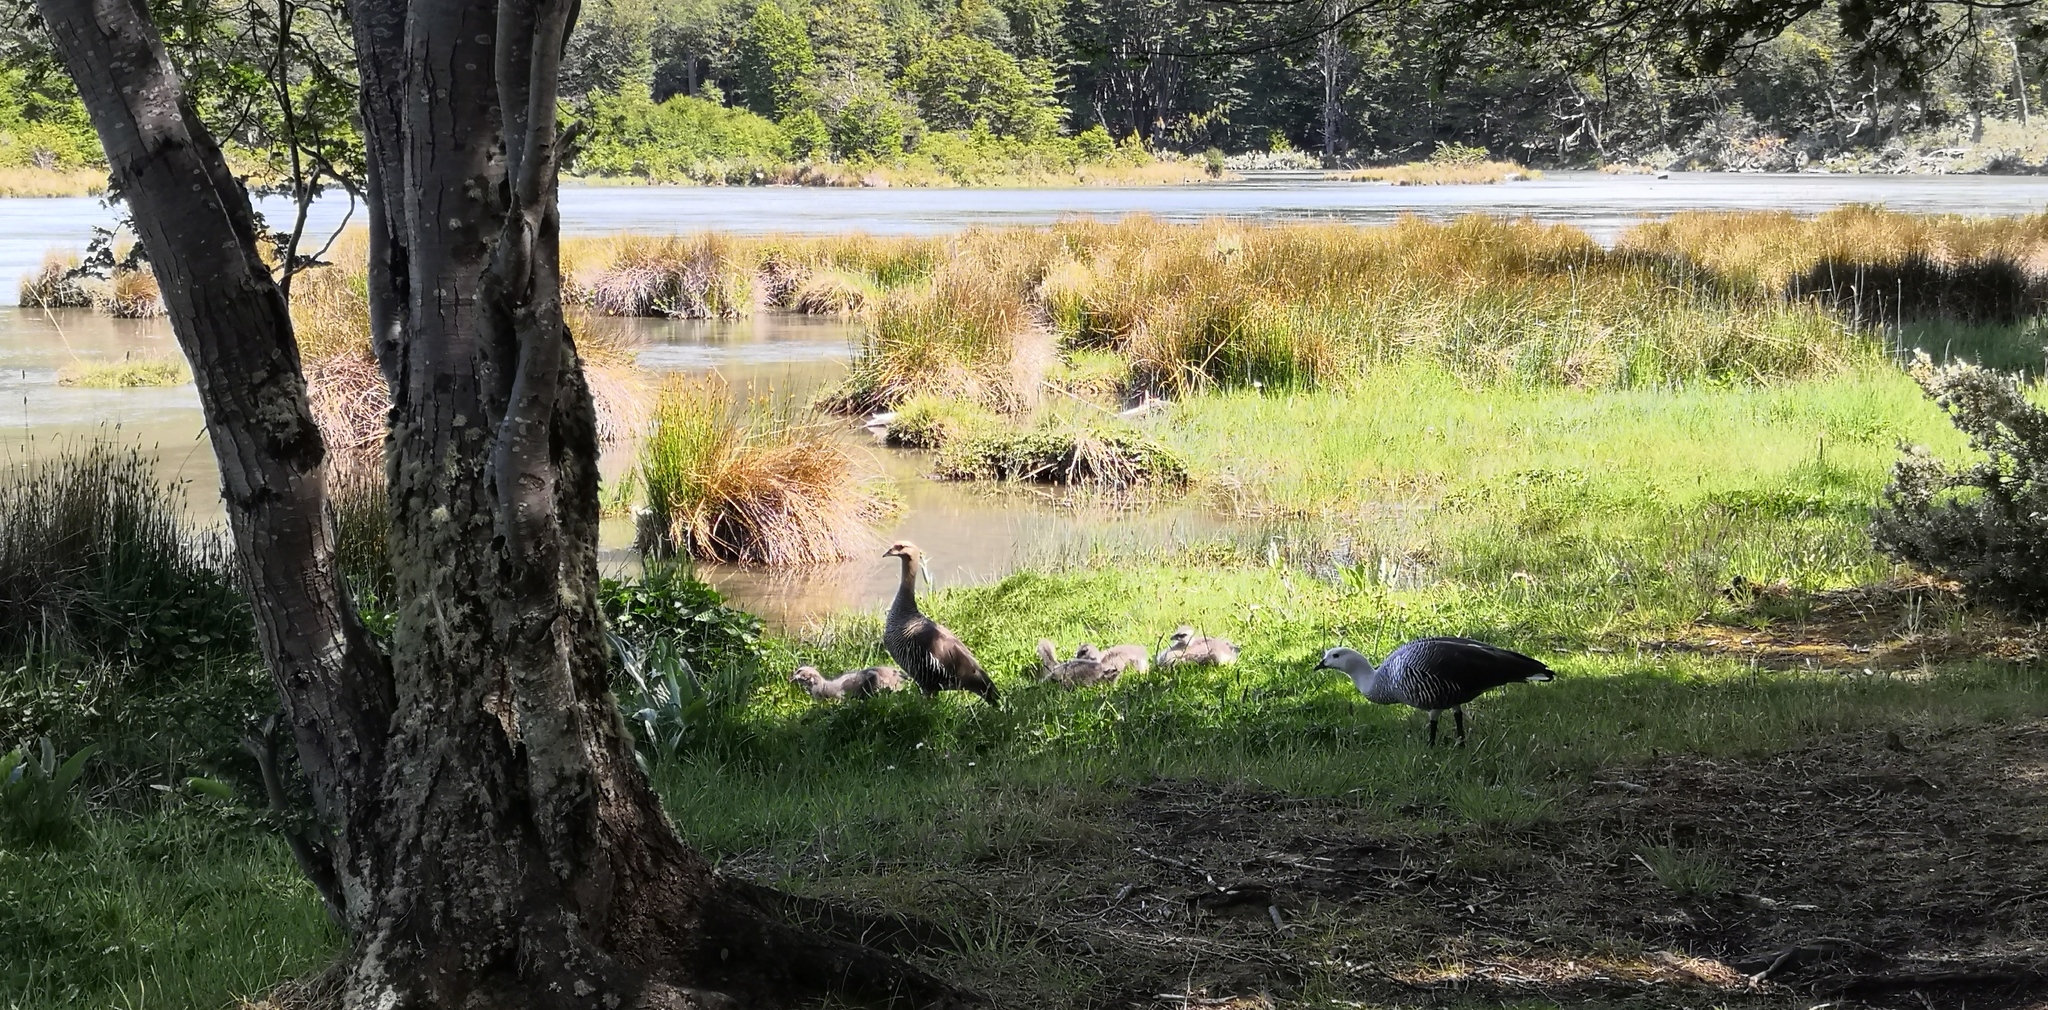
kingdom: Animalia
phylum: Chordata
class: Aves
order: Anseriformes
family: Anatidae
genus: Chloephaga
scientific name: Chloephaga picta
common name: Upland goose
